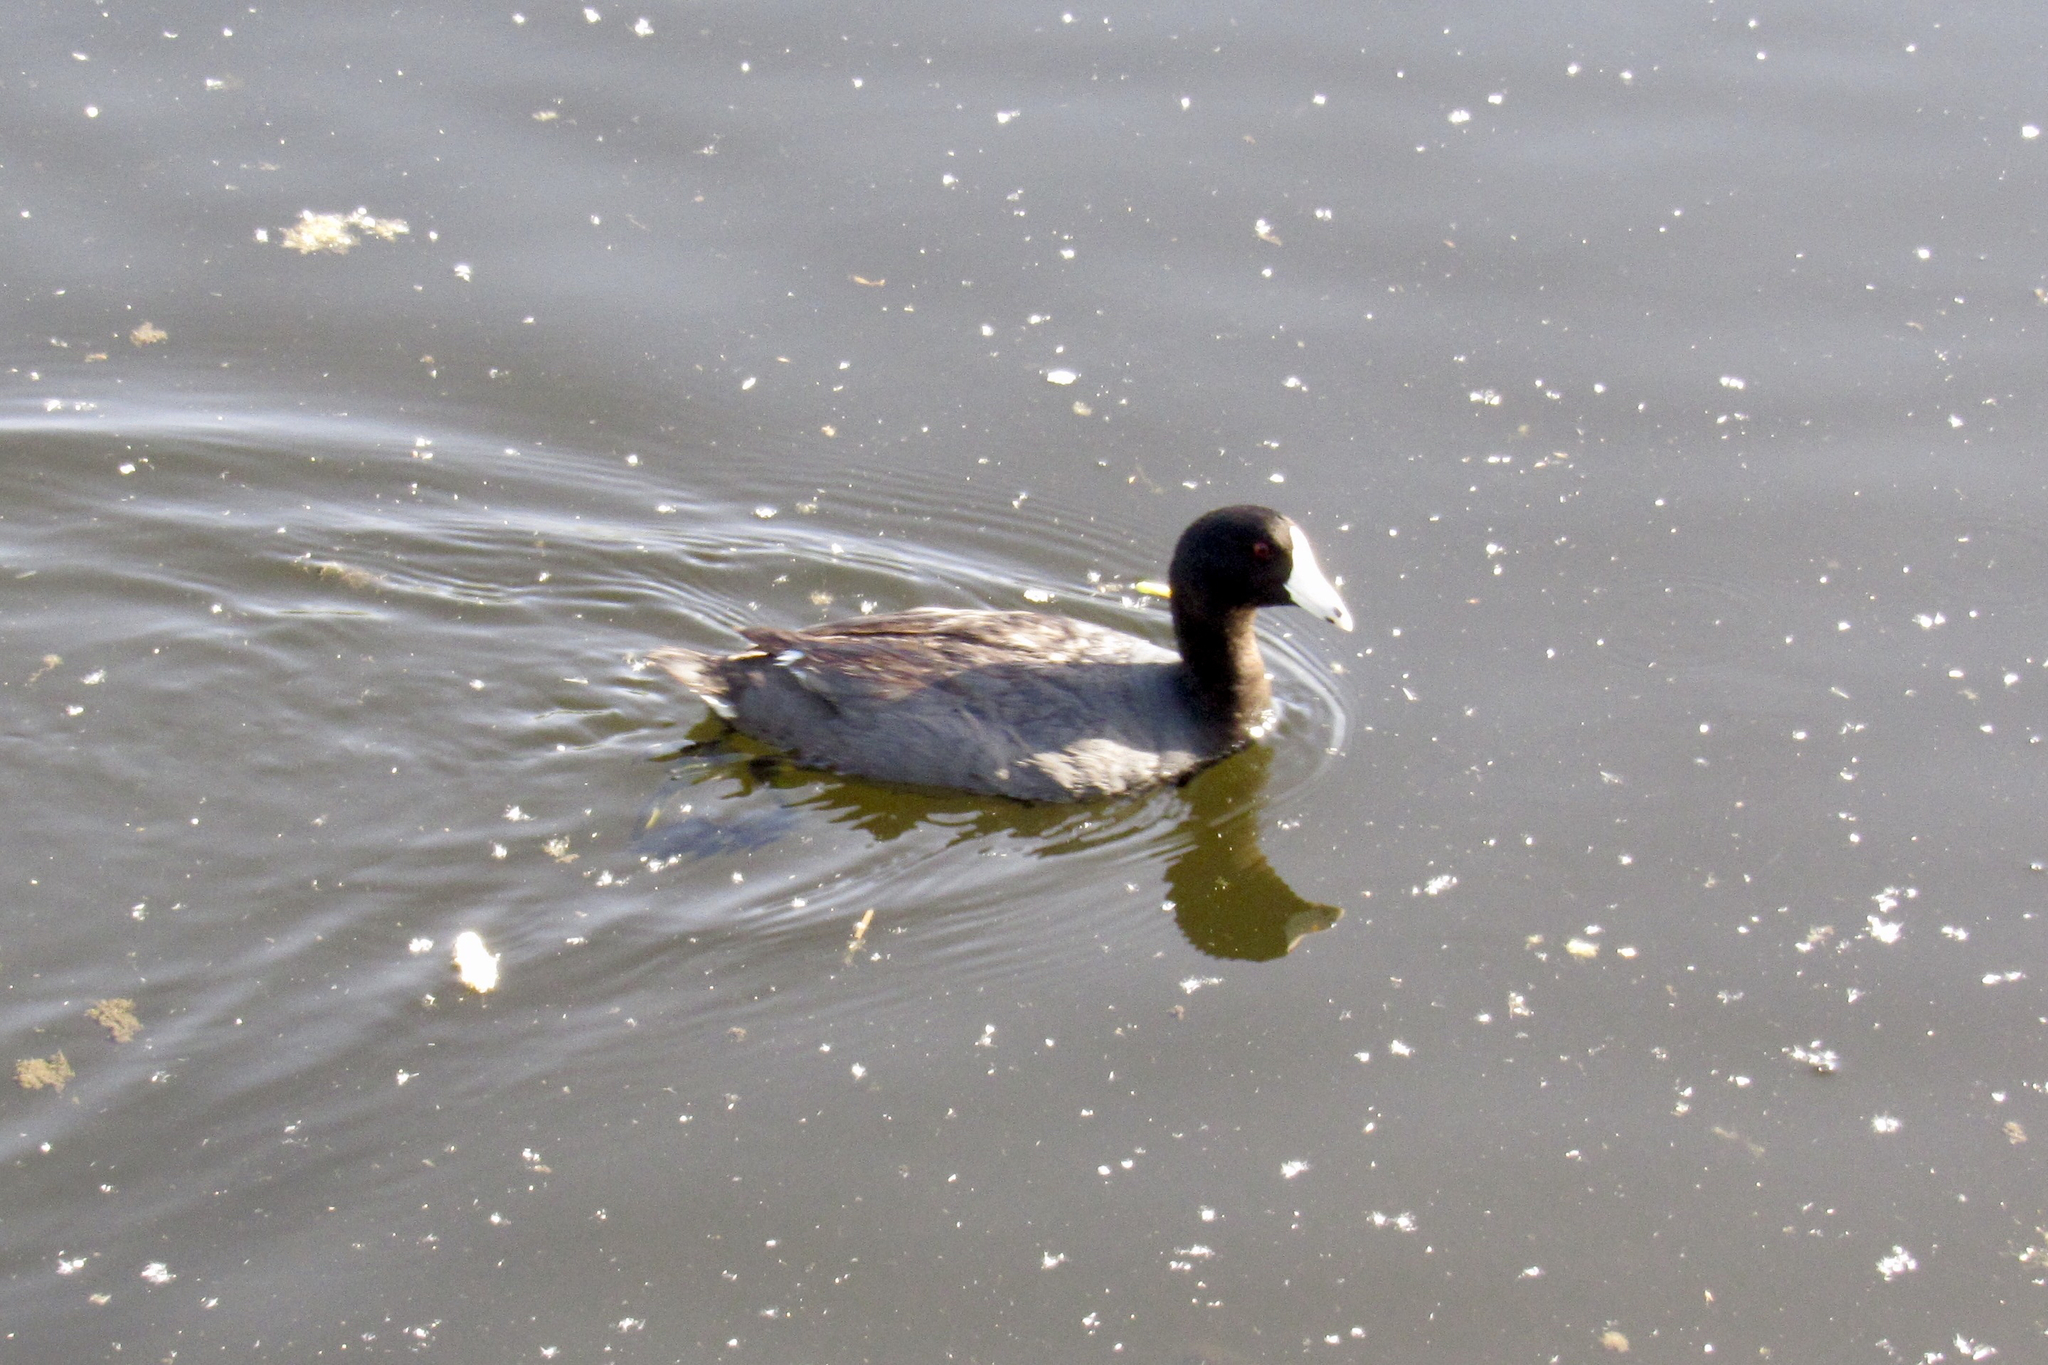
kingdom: Animalia
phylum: Chordata
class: Aves
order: Gruiformes
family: Rallidae
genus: Fulica
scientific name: Fulica americana
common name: American coot
